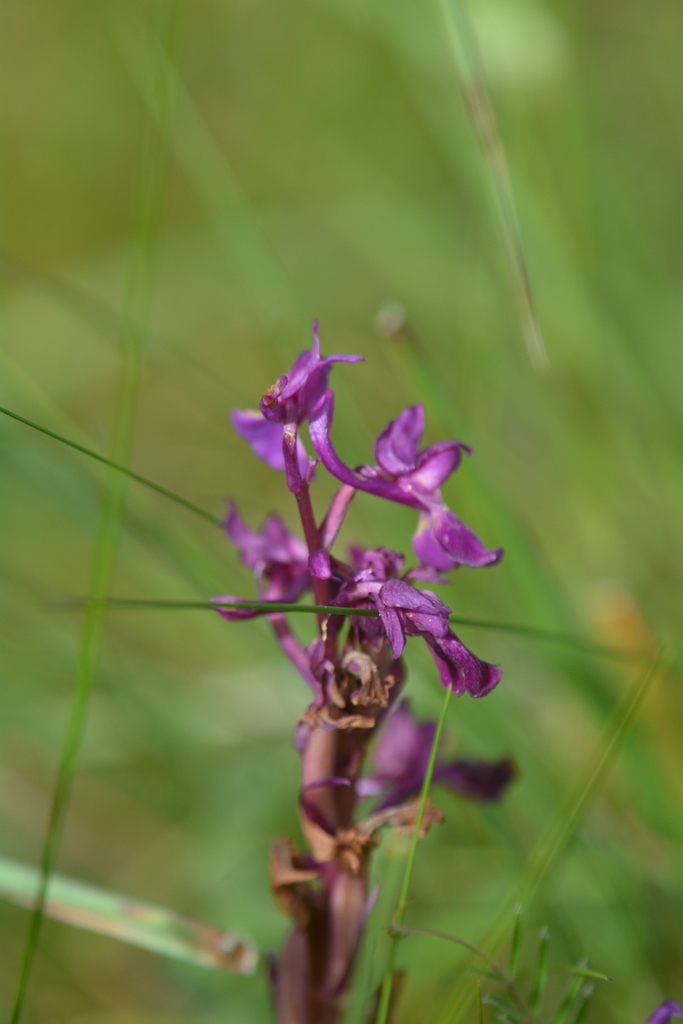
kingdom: Plantae
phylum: Tracheophyta
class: Liliopsida
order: Asparagales
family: Orchidaceae
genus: Orchis
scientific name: Orchis mascula
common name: Early-purple orchid
